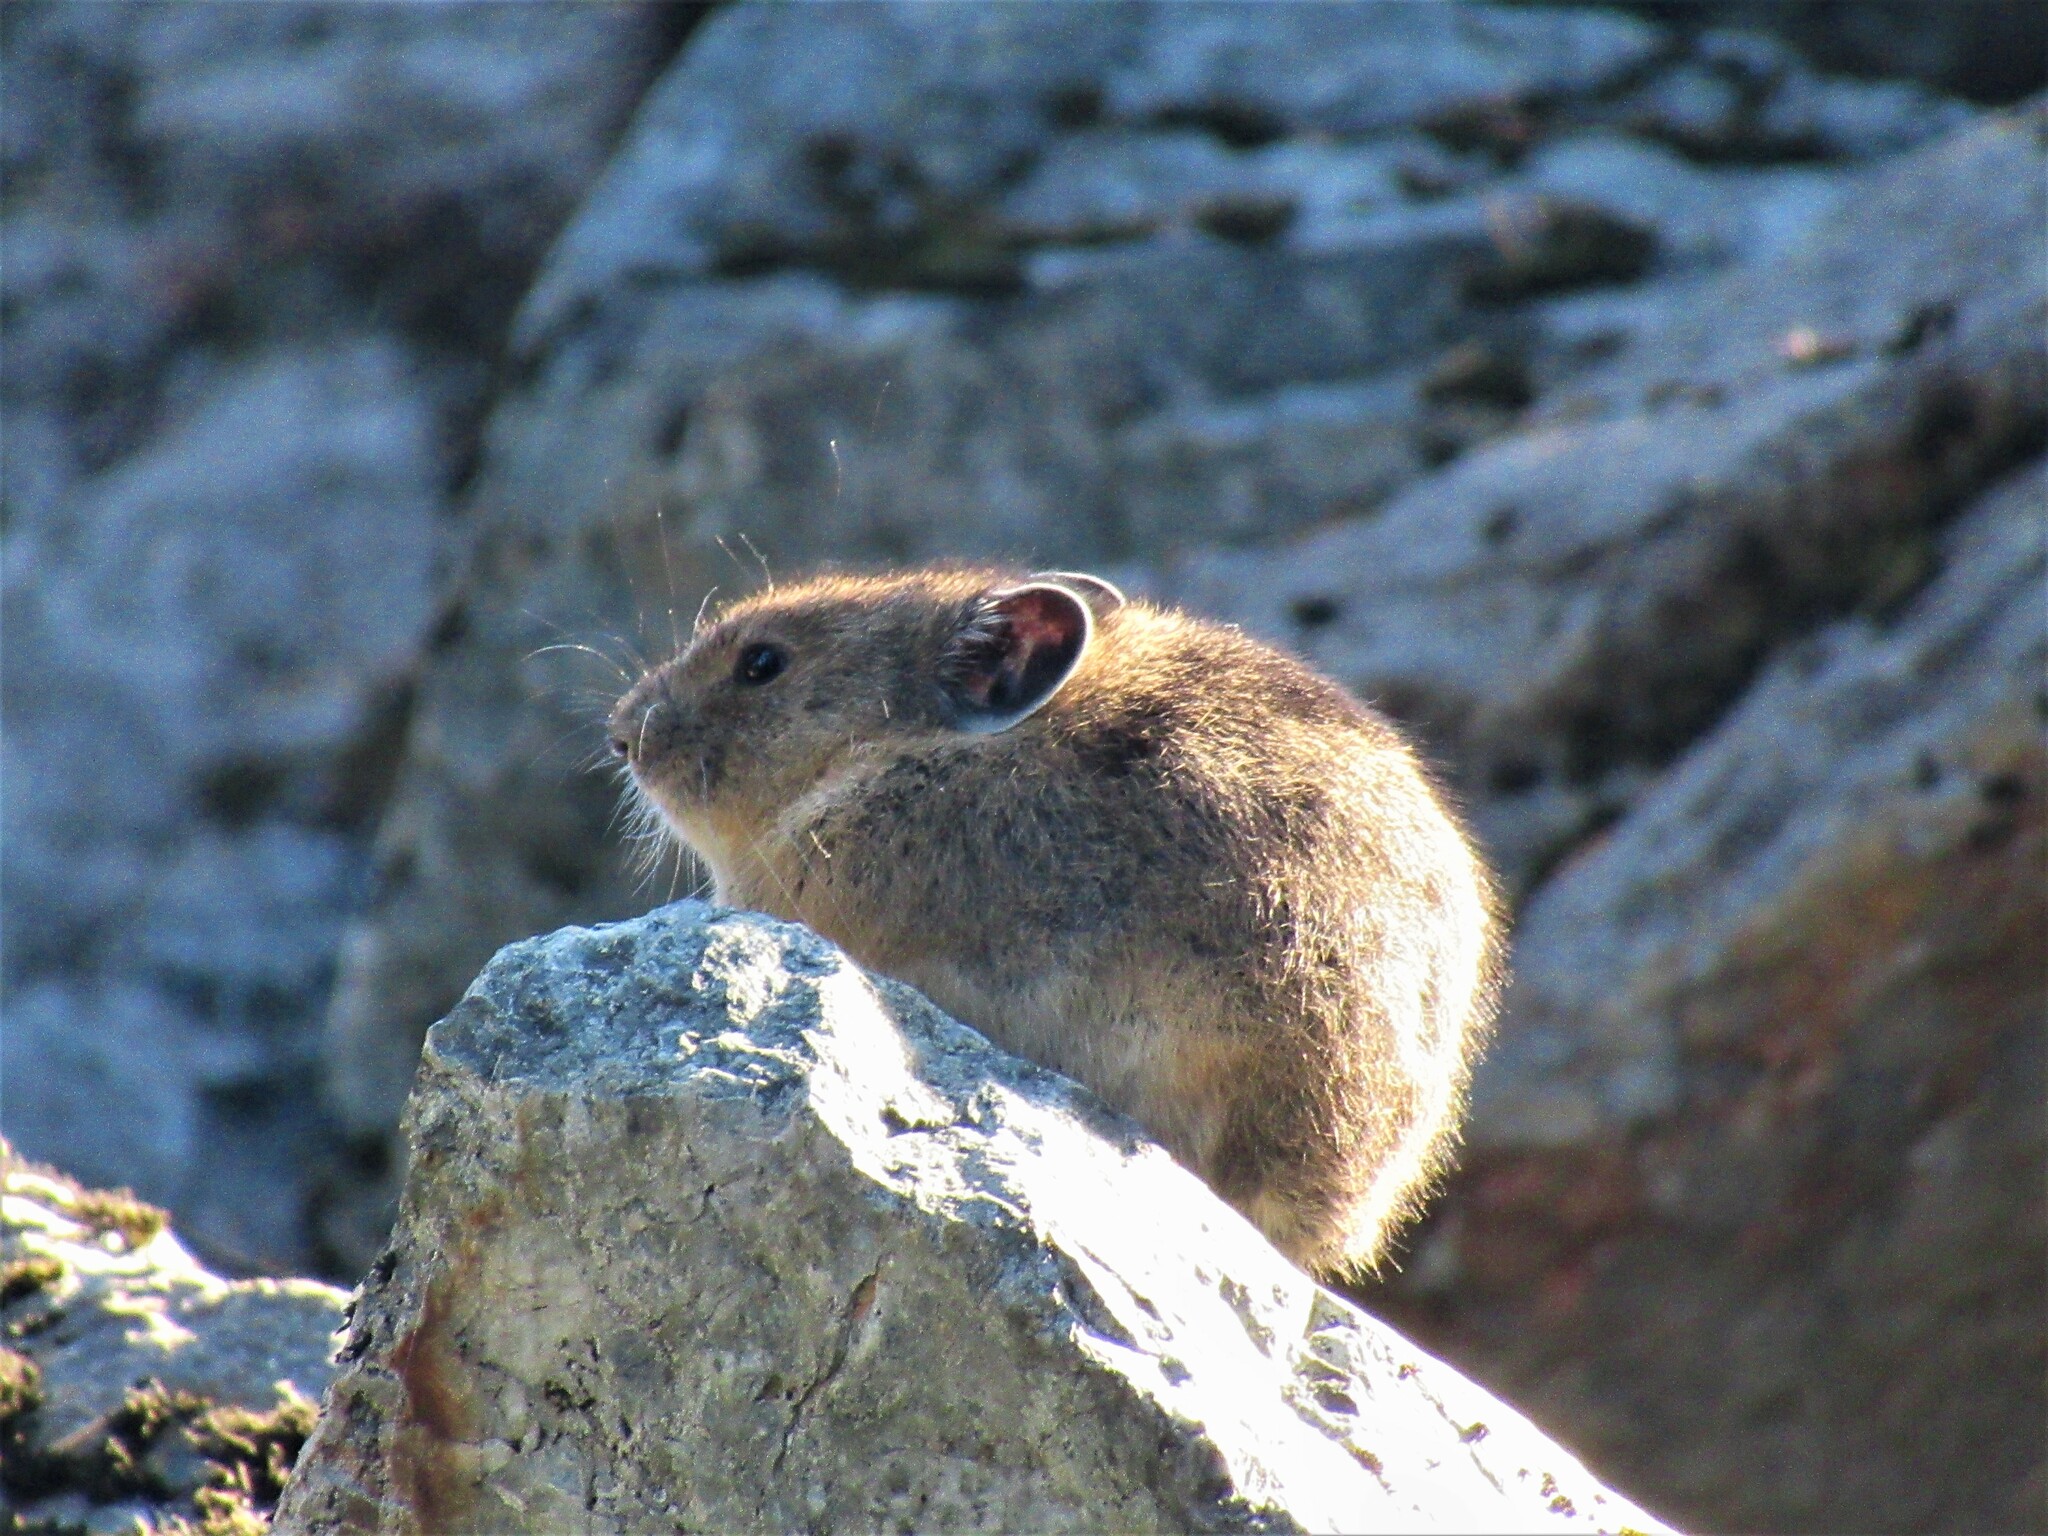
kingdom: Animalia
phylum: Chordata
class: Mammalia
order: Lagomorpha
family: Ochotonidae
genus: Ochotona
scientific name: Ochotona princeps
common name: American pika
